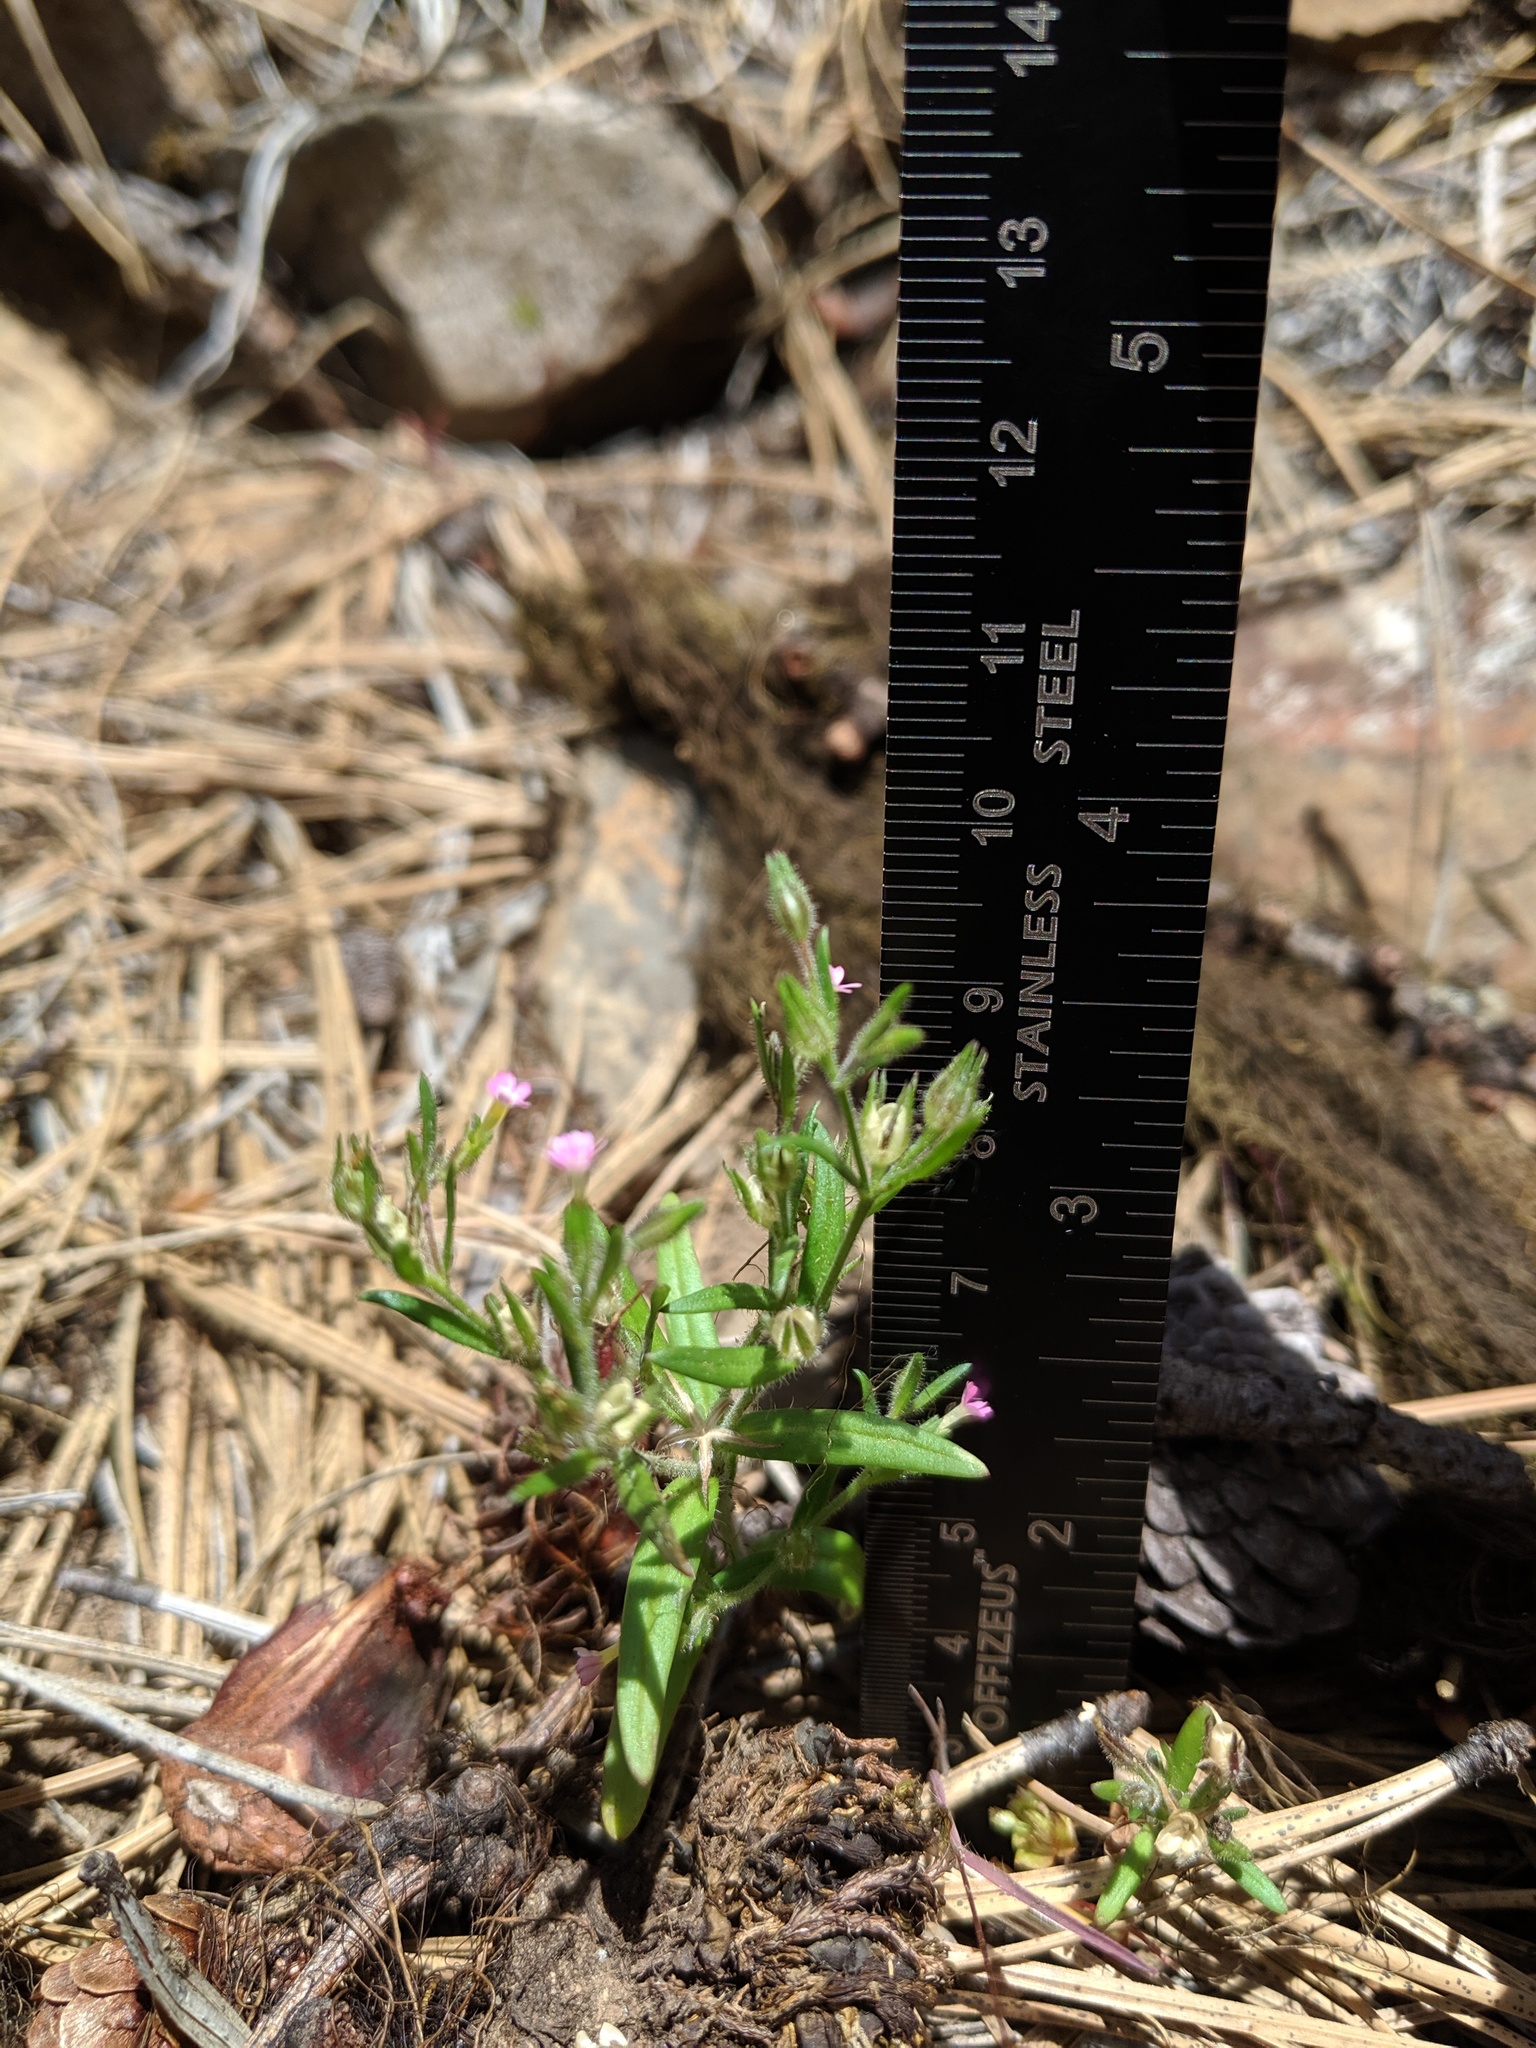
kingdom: Plantae
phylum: Tracheophyta
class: Magnoliopsida
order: Ericales
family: Polemoniaceae
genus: Phlox
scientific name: Phlox gracilis
